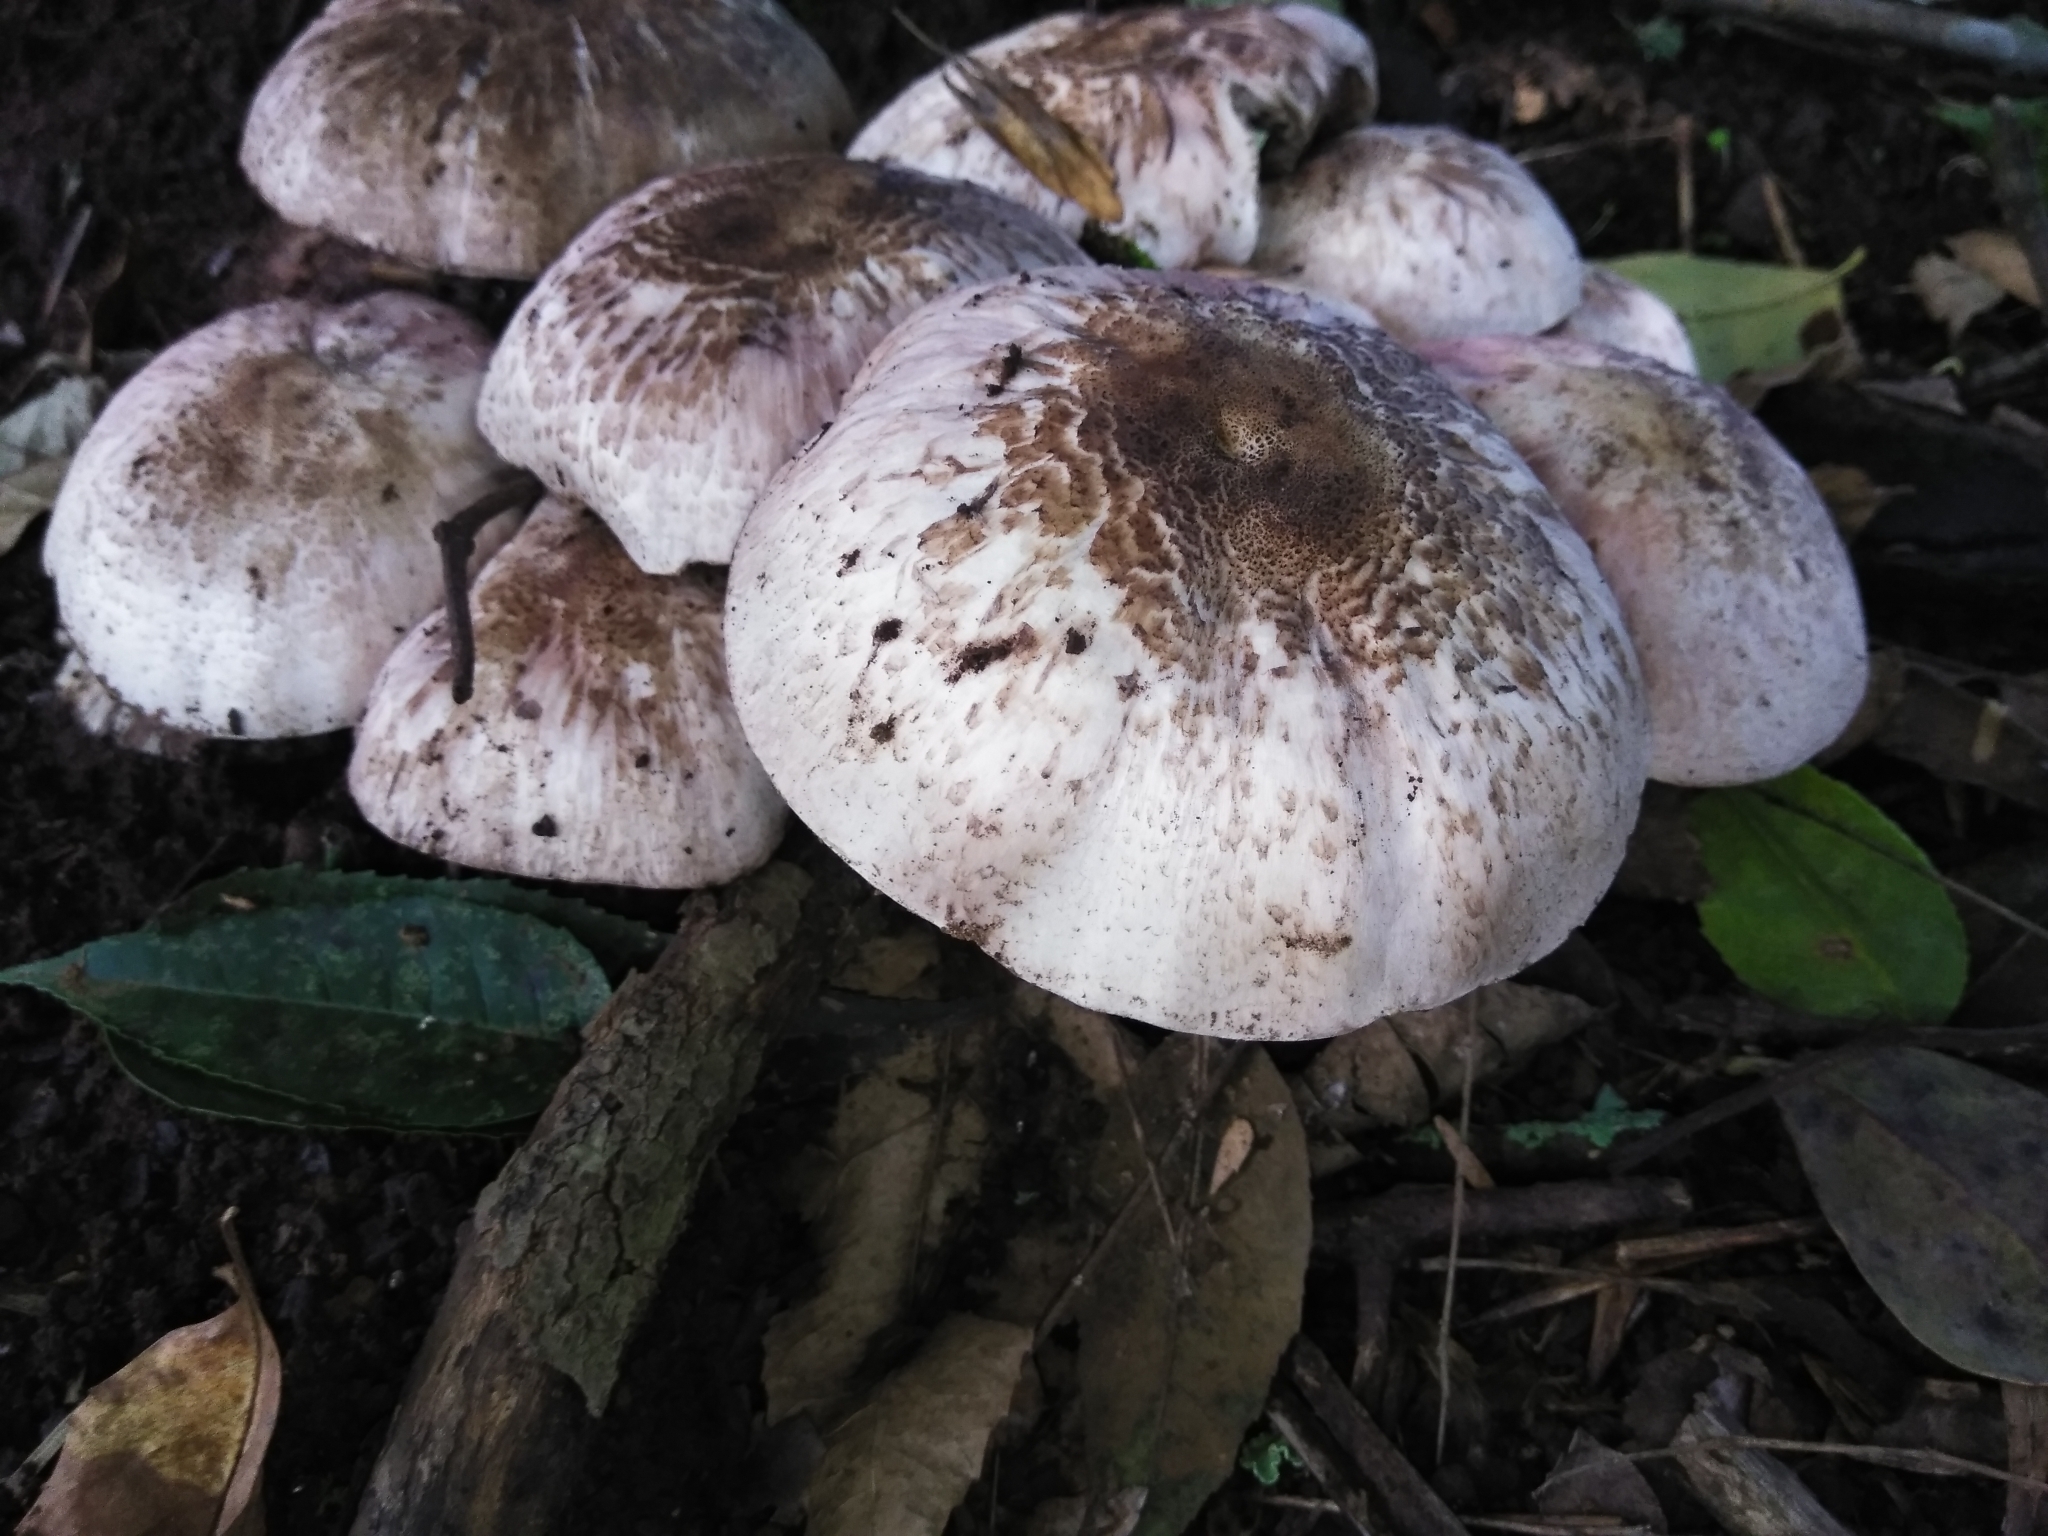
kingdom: Fungi
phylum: Basidiomycota
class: Agaricomycetes
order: Agaricales
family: Agaricaceae
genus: Agaricus
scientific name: Agaricus subrutilescens
